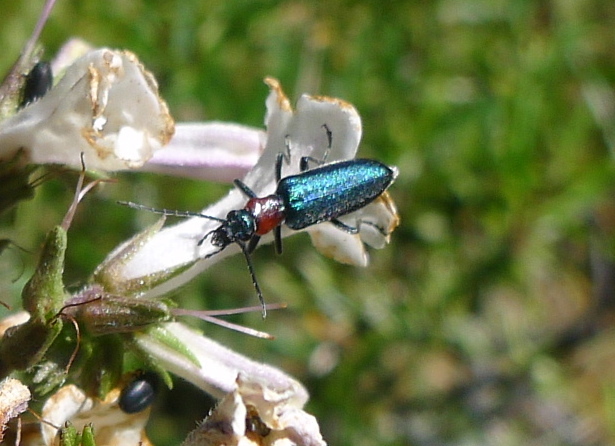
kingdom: Animalia
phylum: Arthropoda
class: Insecta
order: Coleoptera
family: Oedemeridae
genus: Eumecomera
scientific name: Eumecomera bicolor
